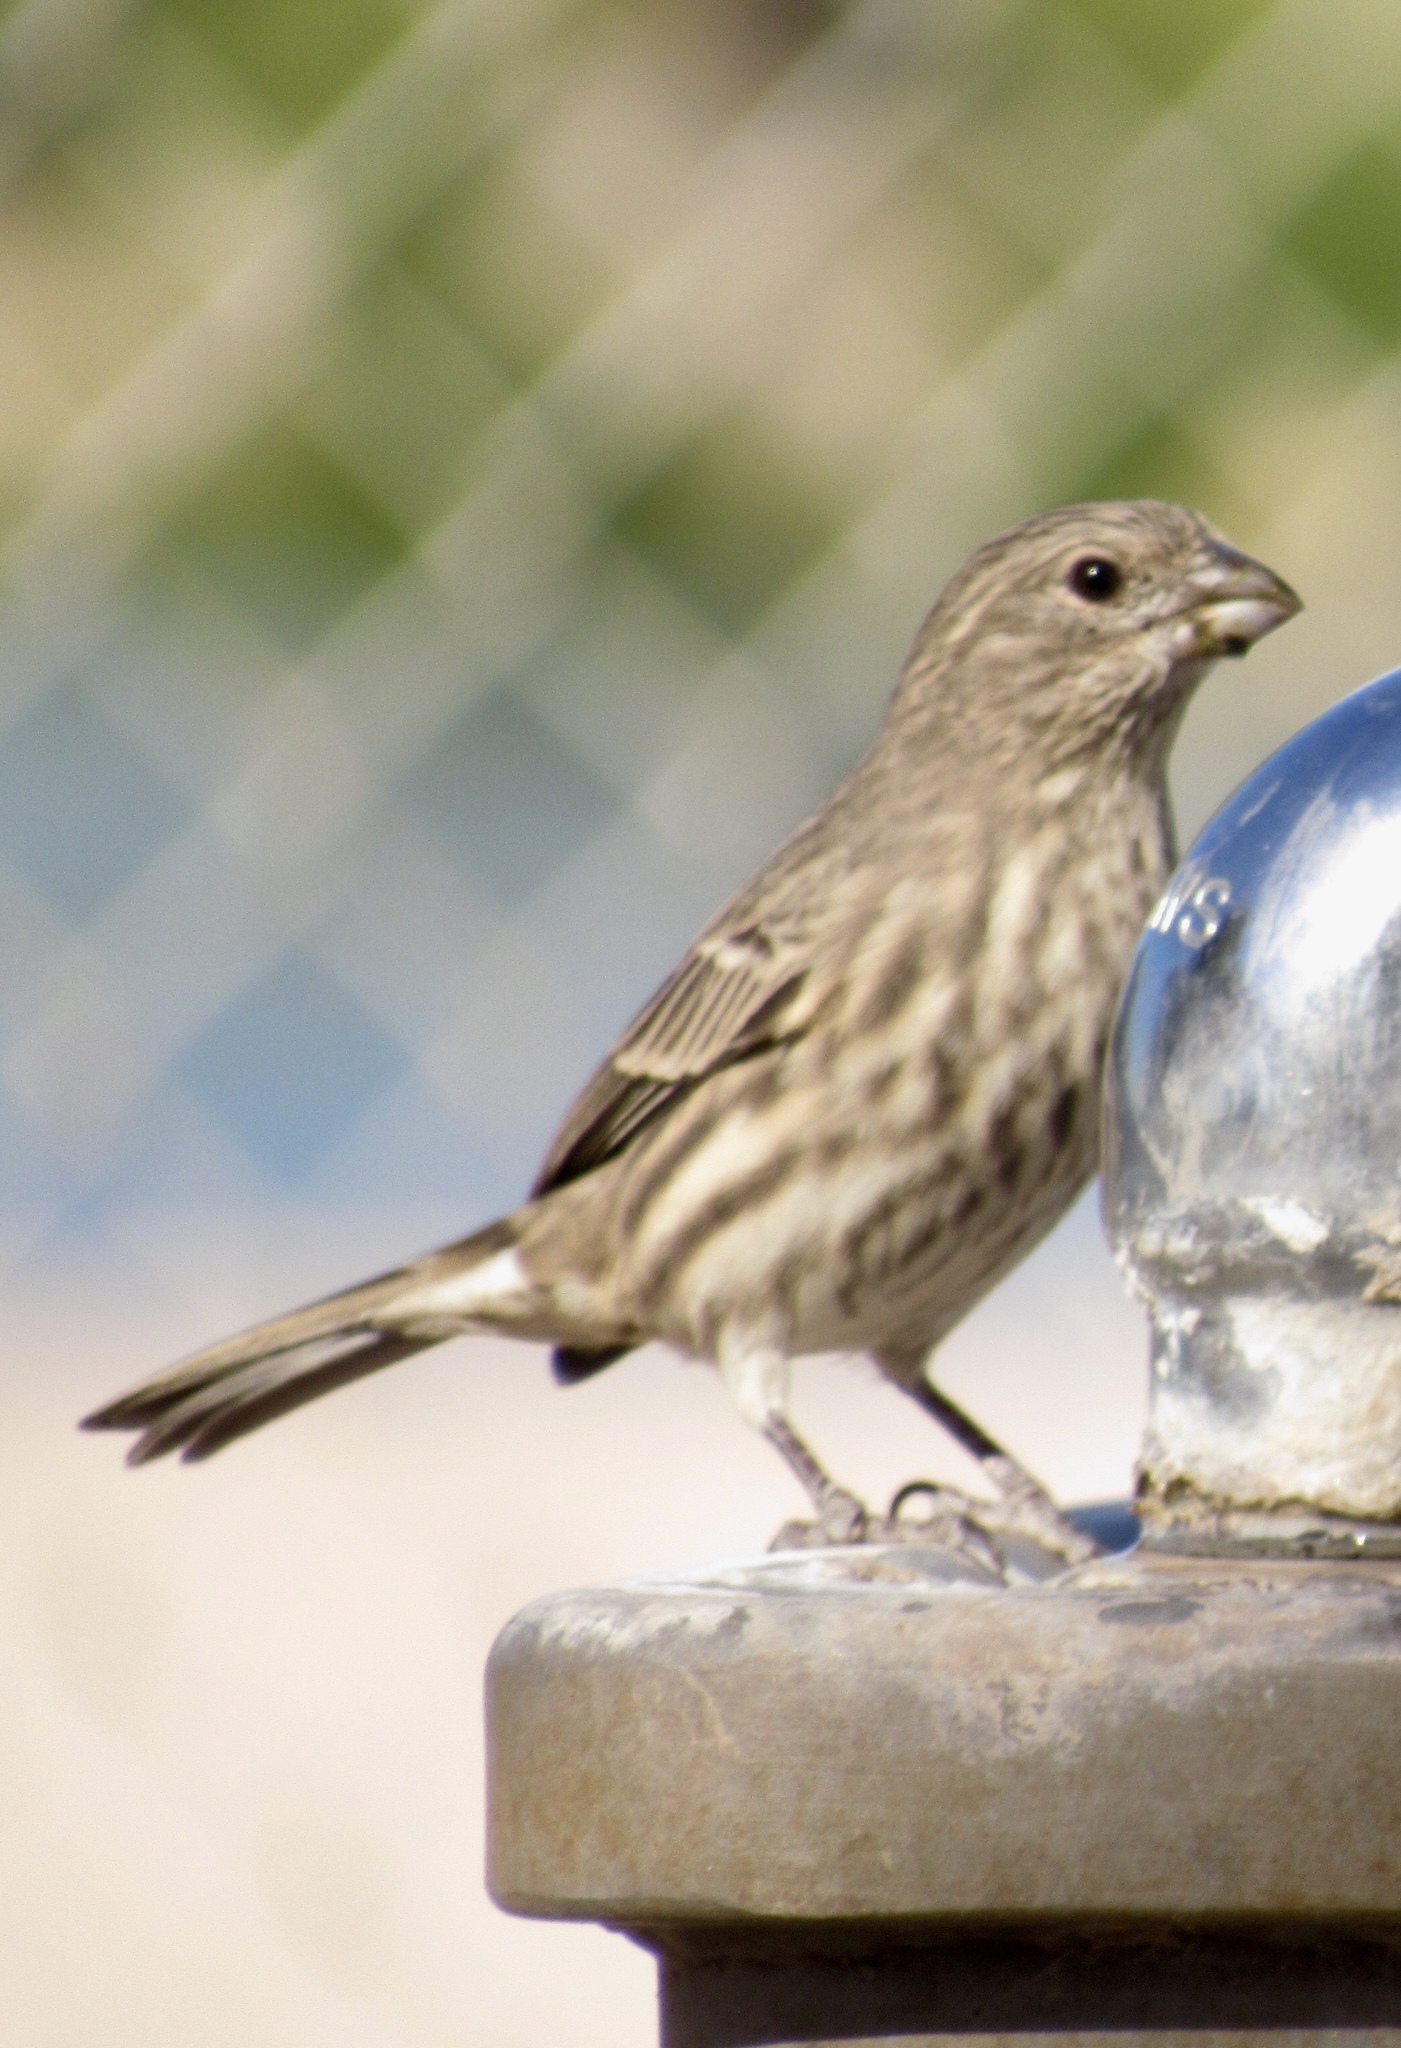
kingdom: Animalia
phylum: Chordata
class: Aves
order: Passeriformes
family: Fringillidae
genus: Haemorhous
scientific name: Haemorhous mexicanus
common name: House finch
